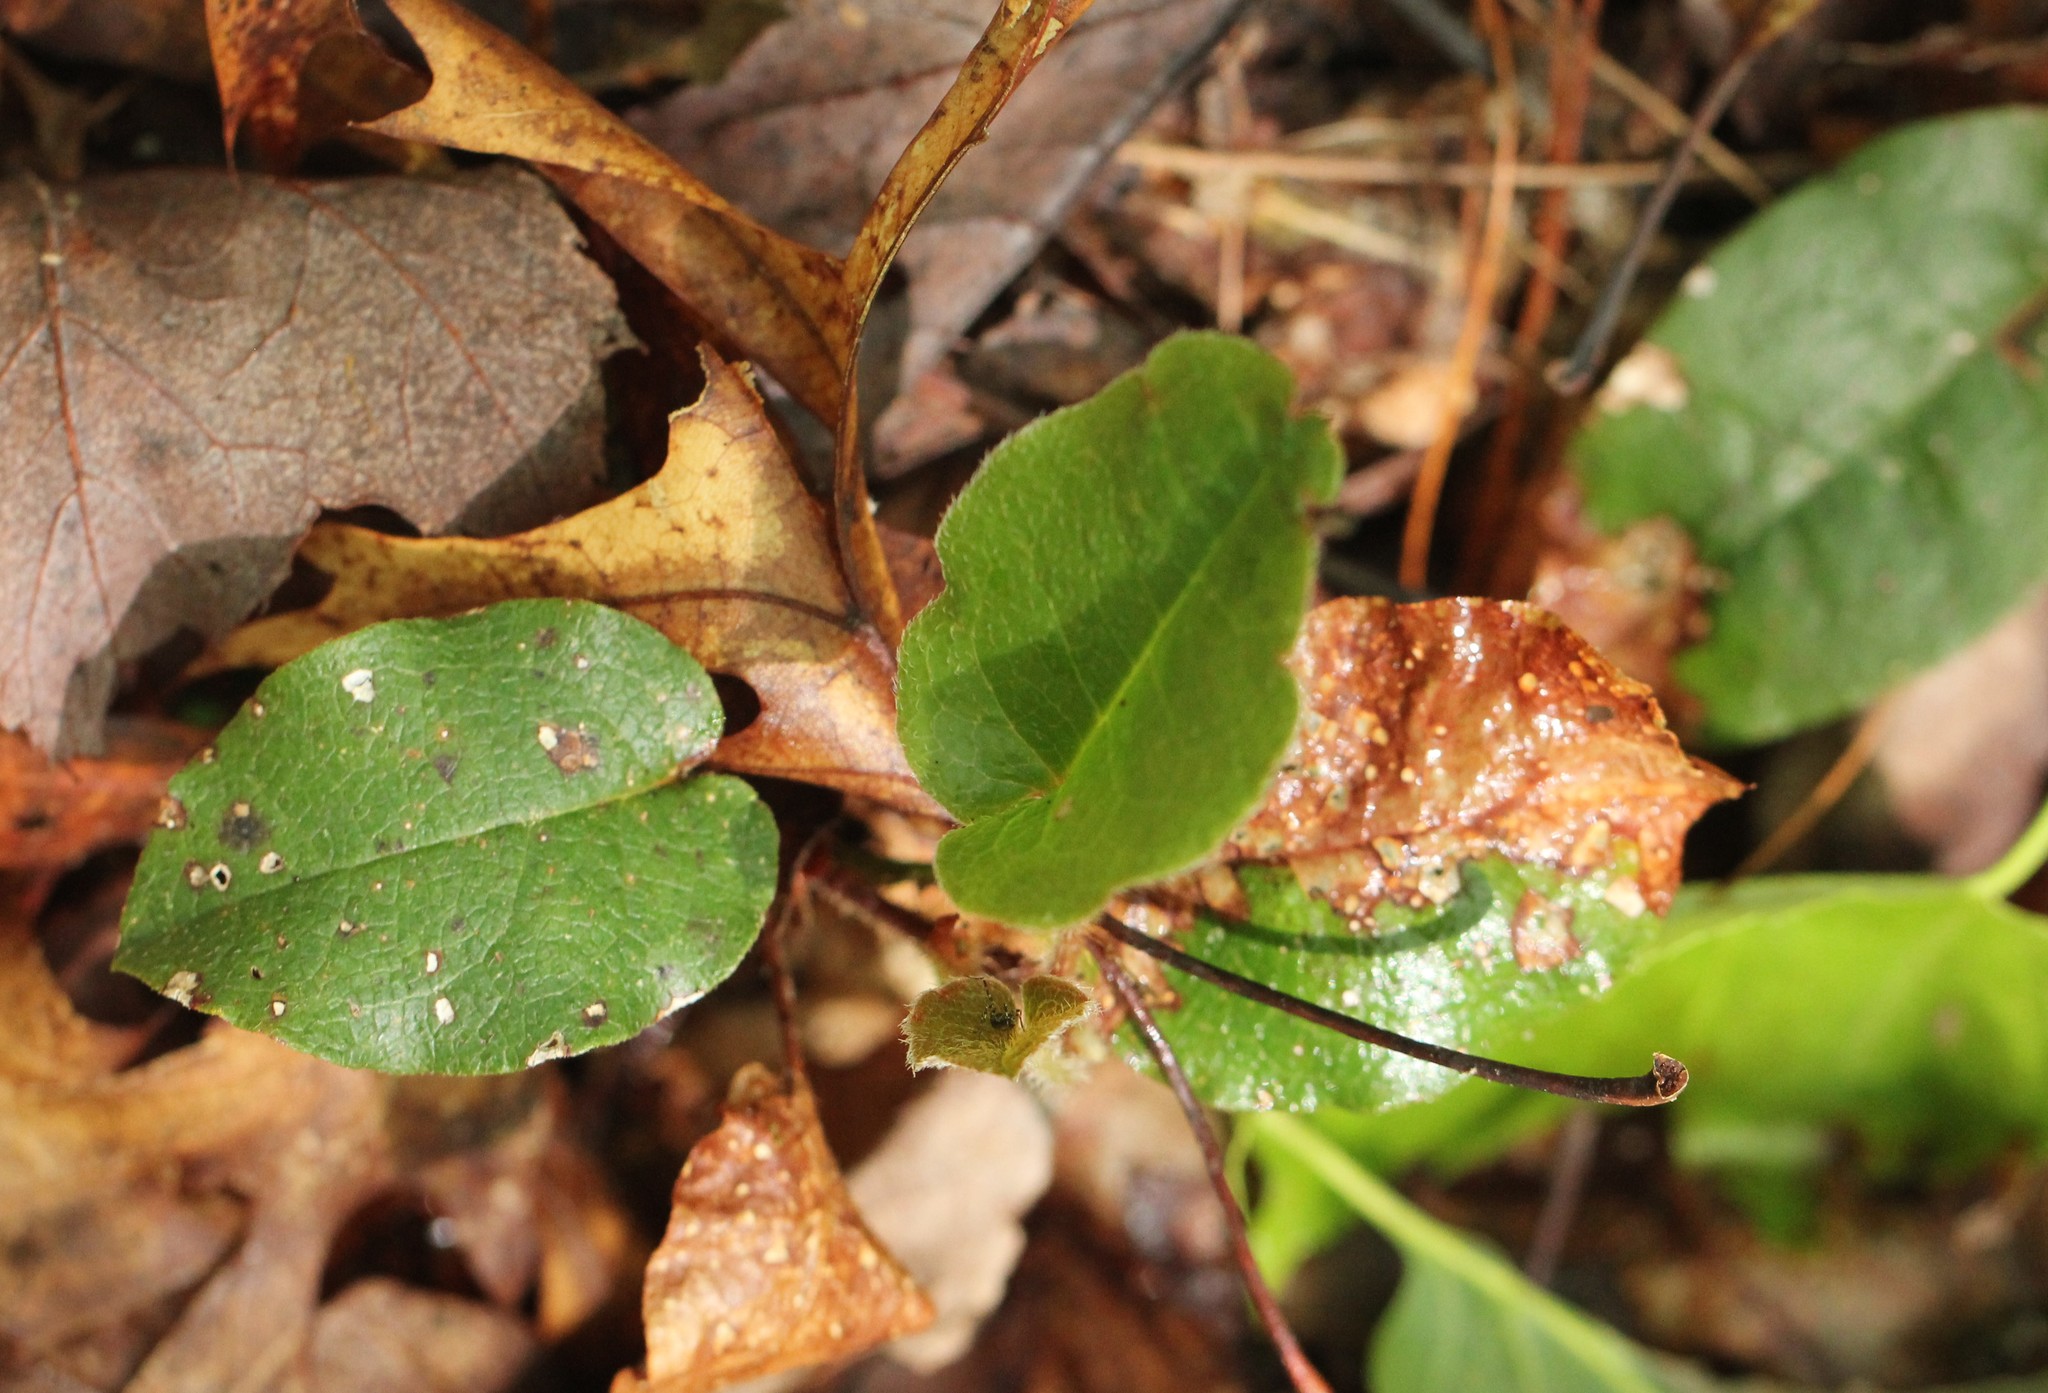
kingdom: Plantae
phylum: Tracheophyta
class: Magnoliopsida
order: Ericales
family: Ericaceae
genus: Epigaea
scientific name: Epigaea repens
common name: Gravelroot
